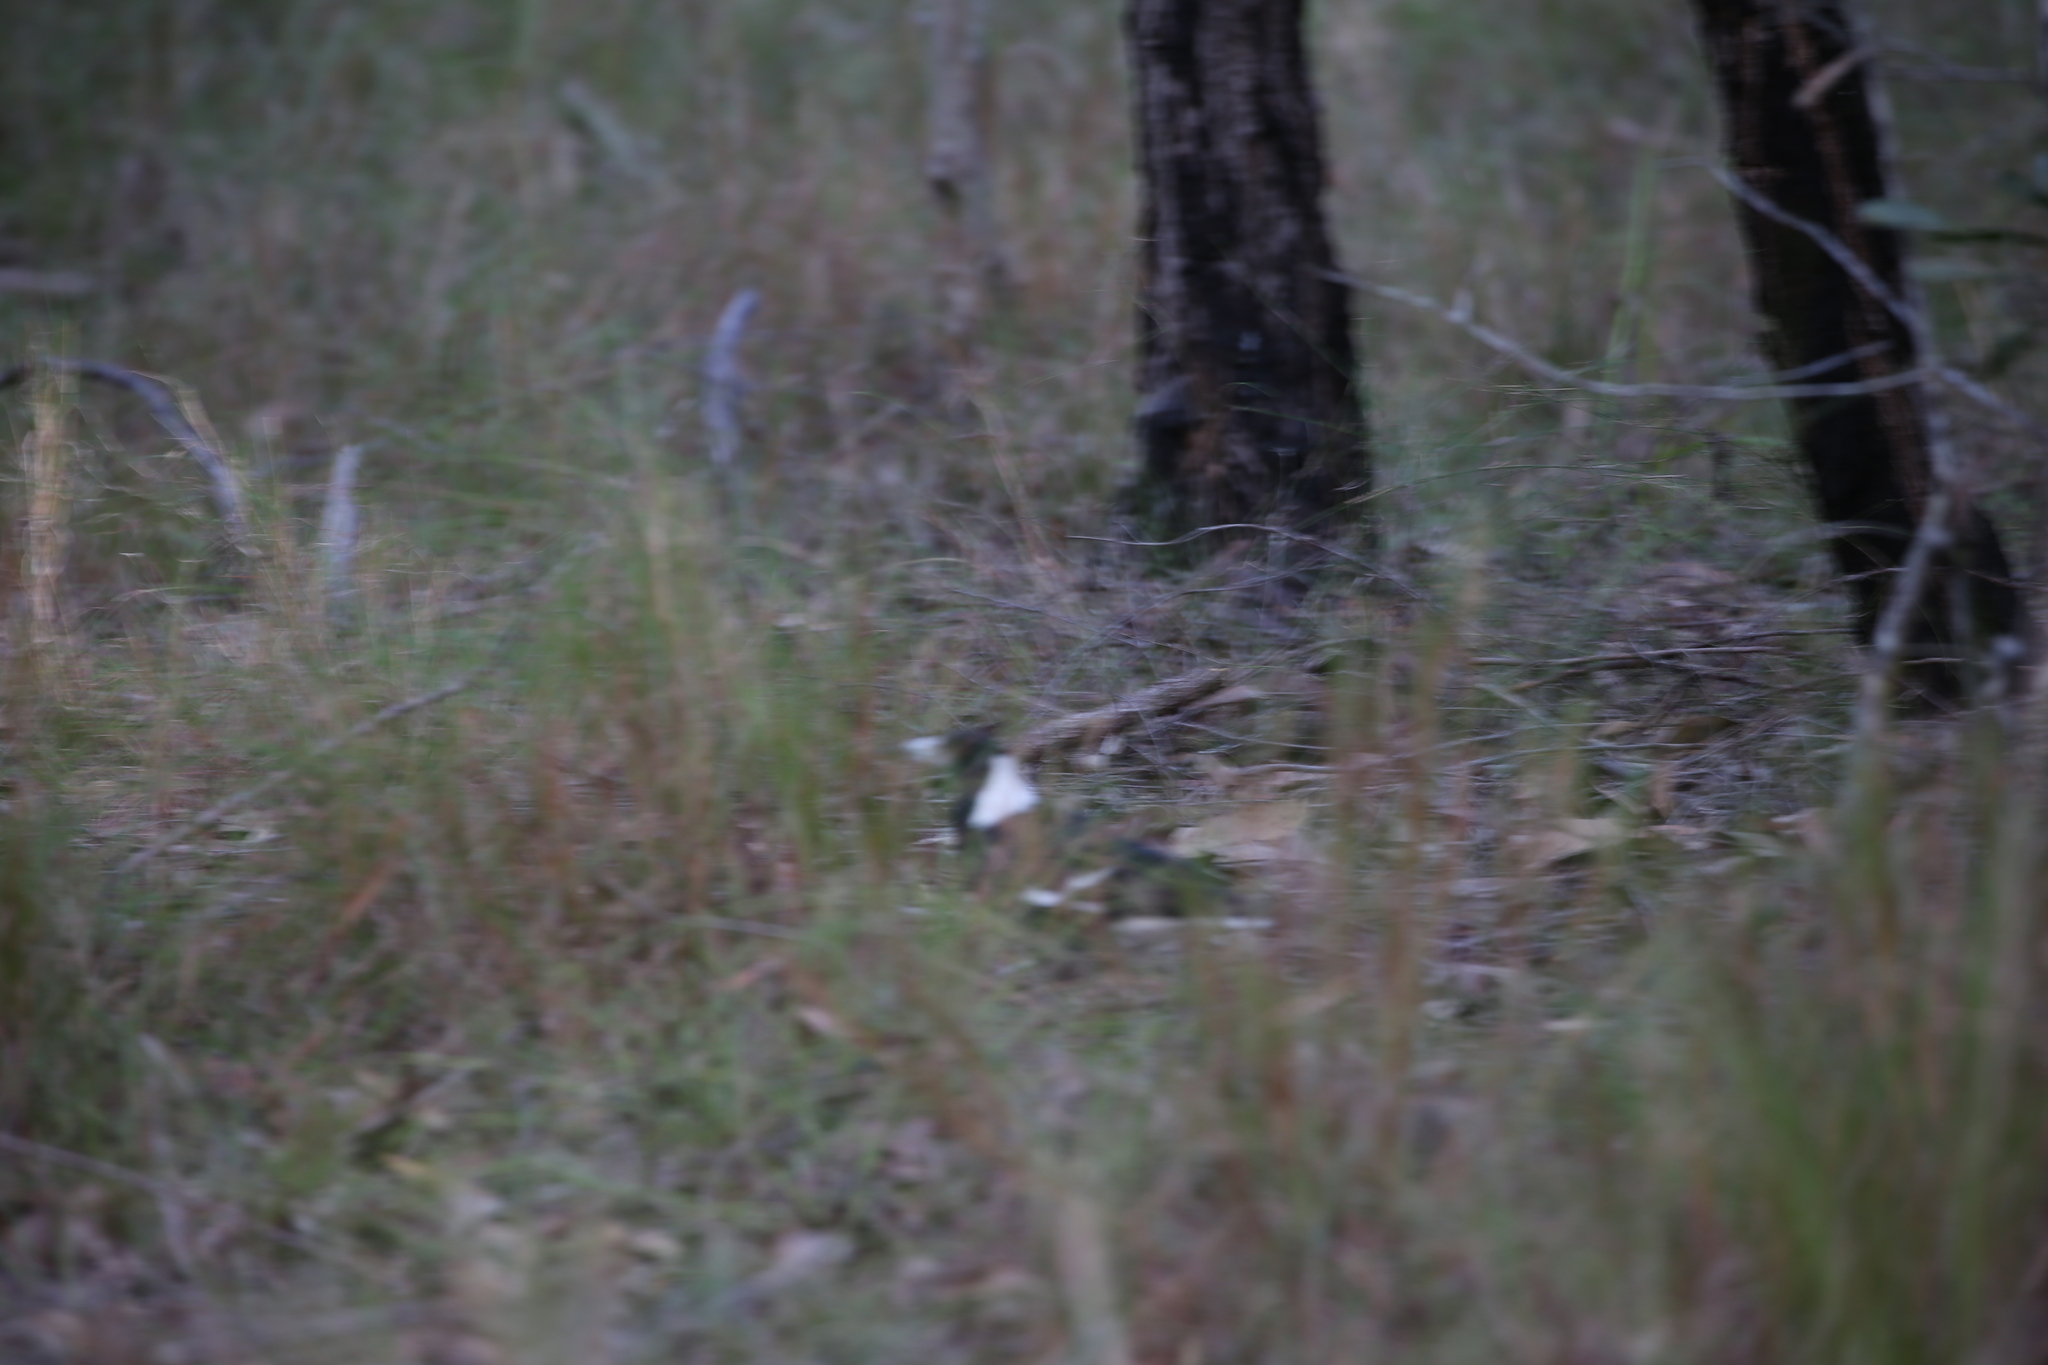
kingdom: Animalia
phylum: Chordata
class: Aves
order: Passeriformes
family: Cracticidae
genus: Gymnorhina
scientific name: Gymnorhina tibicen
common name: Australian magpie
